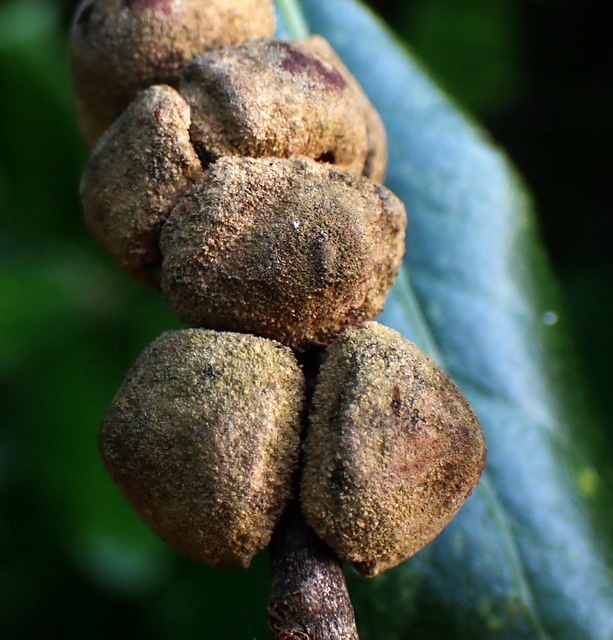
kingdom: Animalia
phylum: Arthropoda
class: Insecta
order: Hymenoptera
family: Cynipidae
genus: Disholcaspis
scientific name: Disholcaspis
